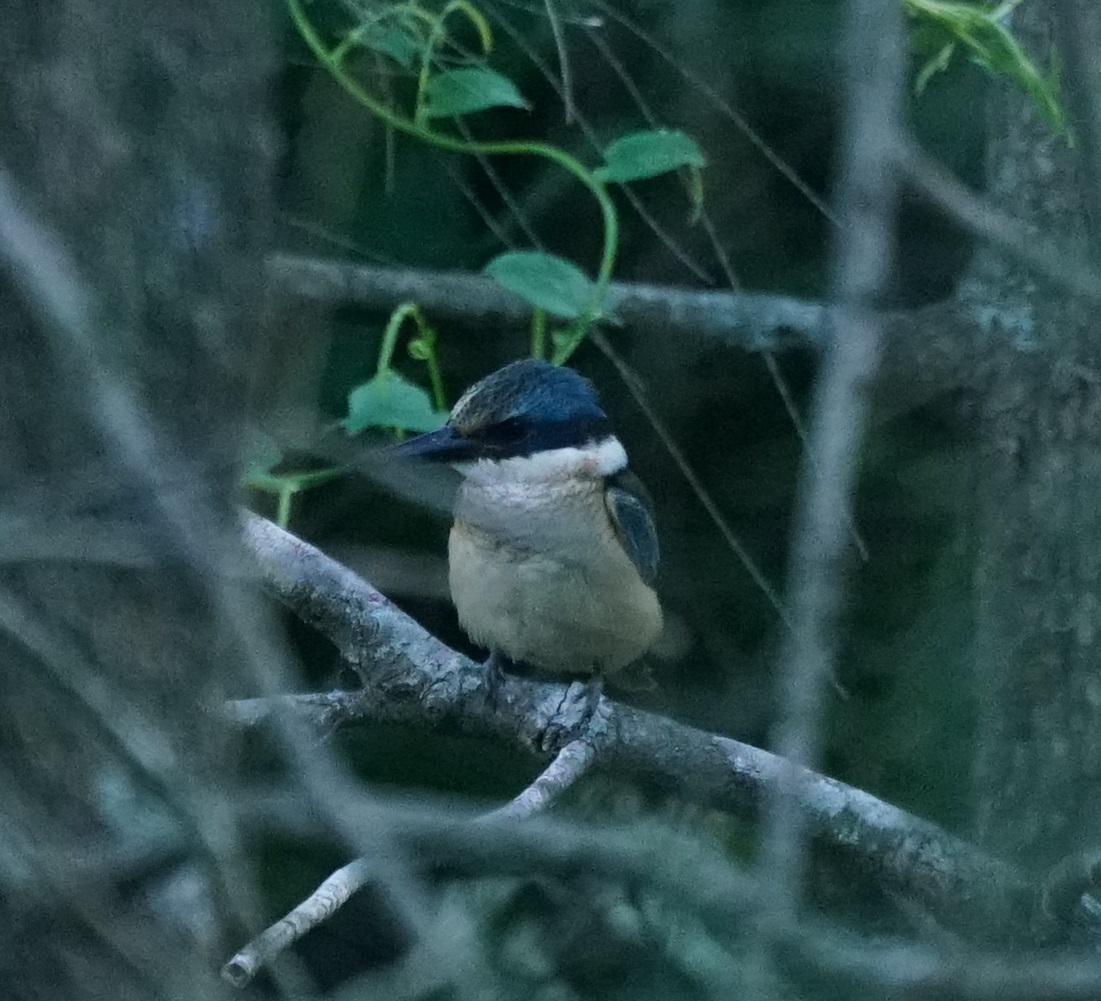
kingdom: Animalia
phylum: Chordata
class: Aves
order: Coraciiformes
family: Alcedinidae
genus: Todiramphus
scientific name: Todiramphus sanctus
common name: Sacred kingfisher
